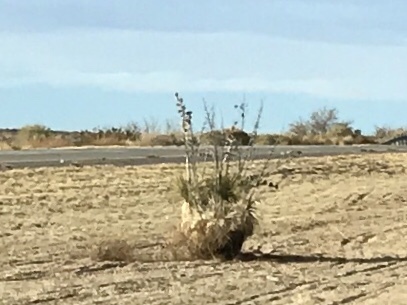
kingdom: Plantae
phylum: Tracheophyta
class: Liliopsida
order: Asparagales
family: Asparagaceae
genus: Yucca
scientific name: Yucca elata
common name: Palmella
